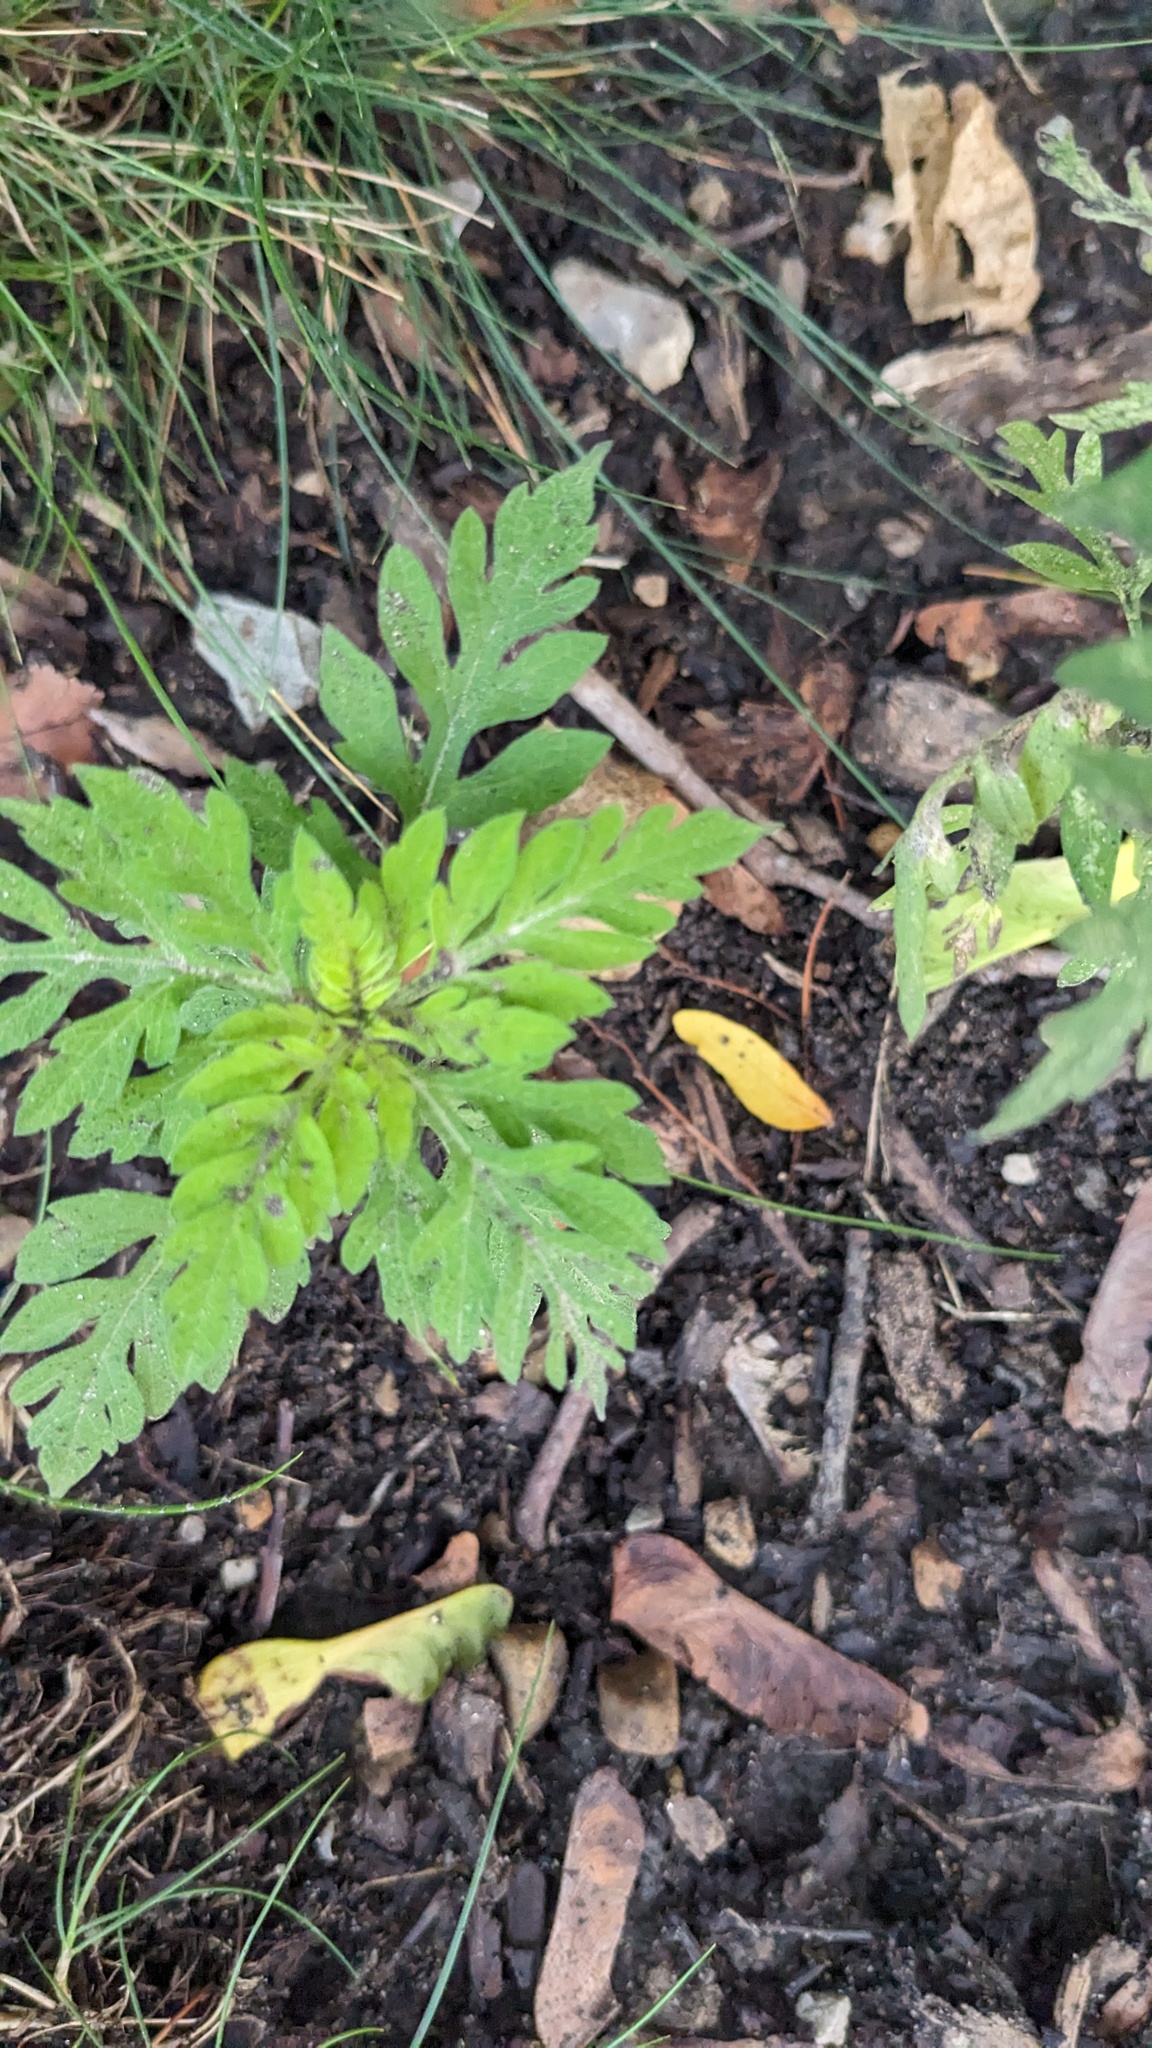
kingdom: Plantae
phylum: Tracheophyta
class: Magnoliopsida
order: Asterales
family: Asteraceae
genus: Ambrosia
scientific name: Ambrosia artemisiifolia
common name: Annual ragweed
